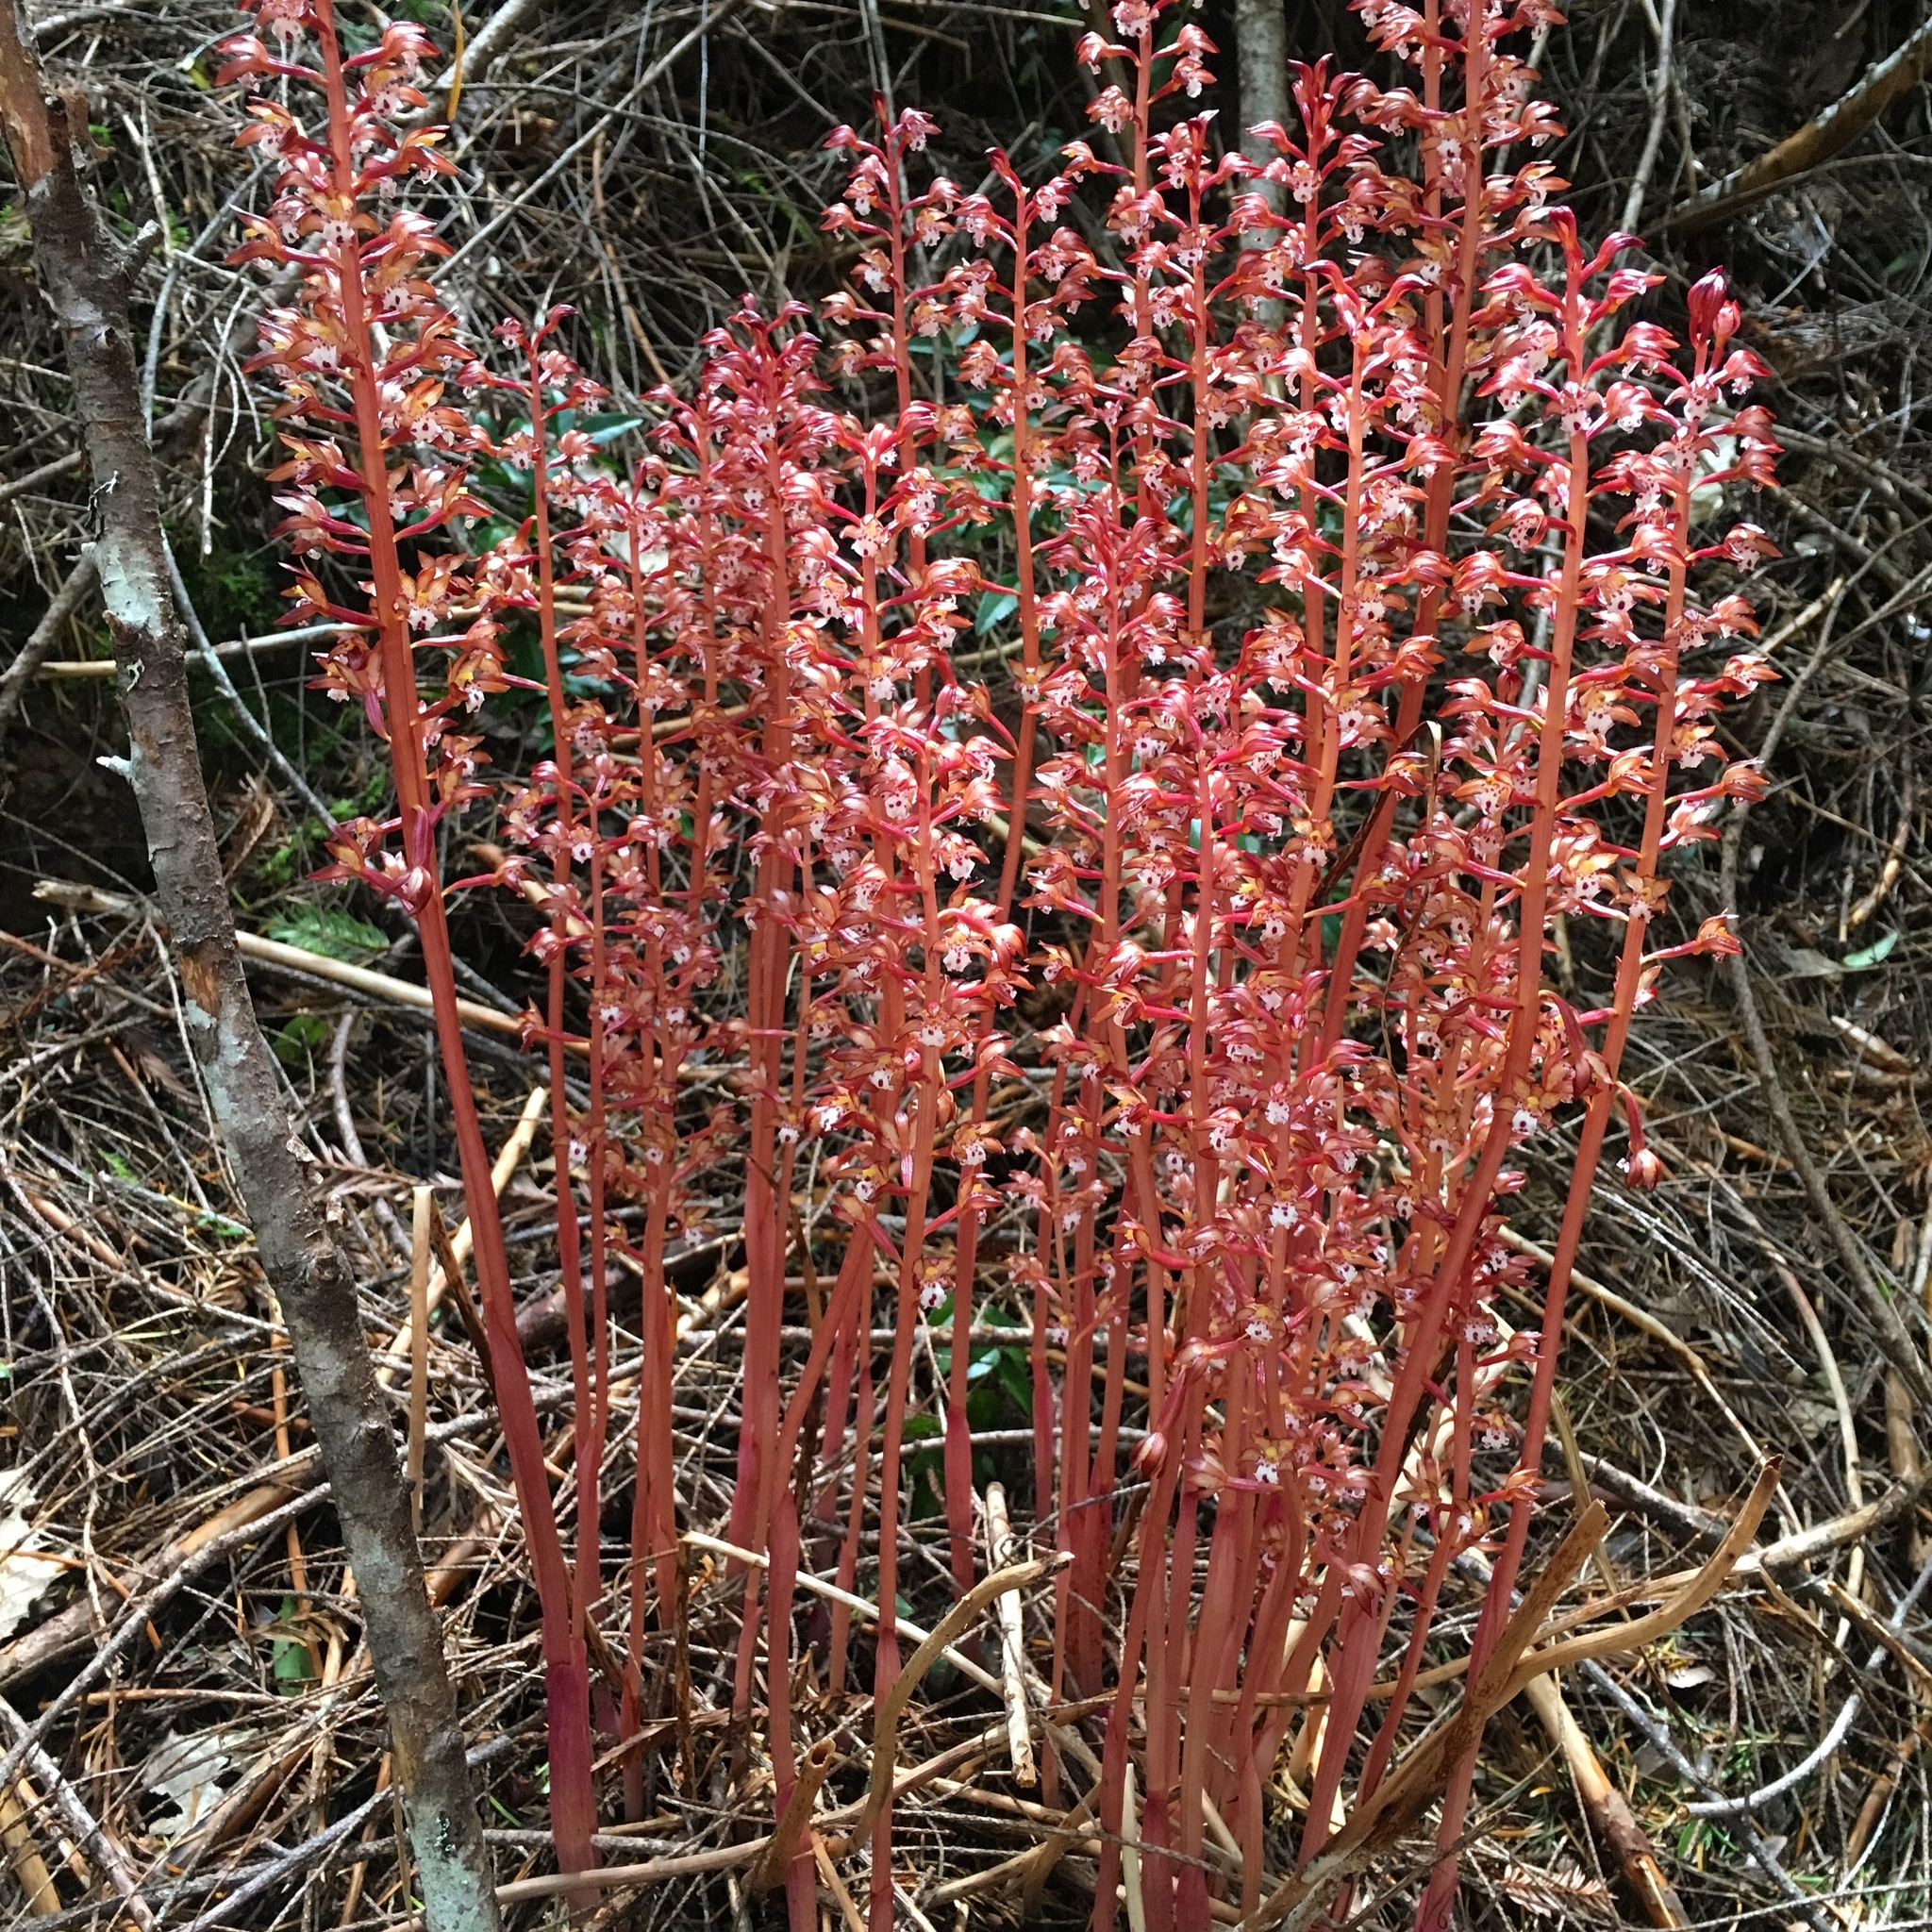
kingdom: Plantae
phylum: Tracheophyta
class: Liliopsida
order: Asparagales
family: Orchidaceae
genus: Corallorhiza
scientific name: Corallorhiza maculata
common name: Spotted coralroot
